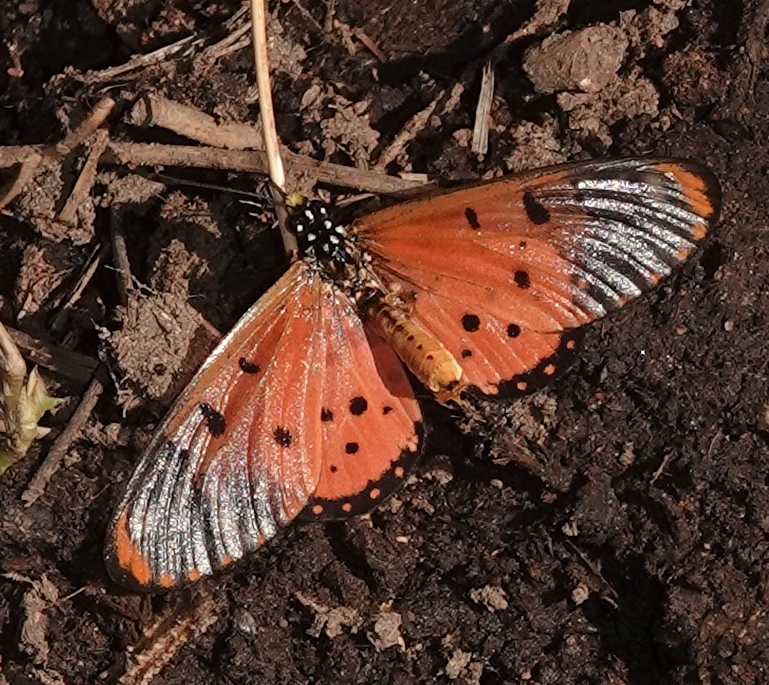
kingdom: Animalia
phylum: Arthropoda
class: Insecta
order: Lepidoptera
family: Nymphalidae
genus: Acraea
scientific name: Acraea neobule
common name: Dancing acraea
